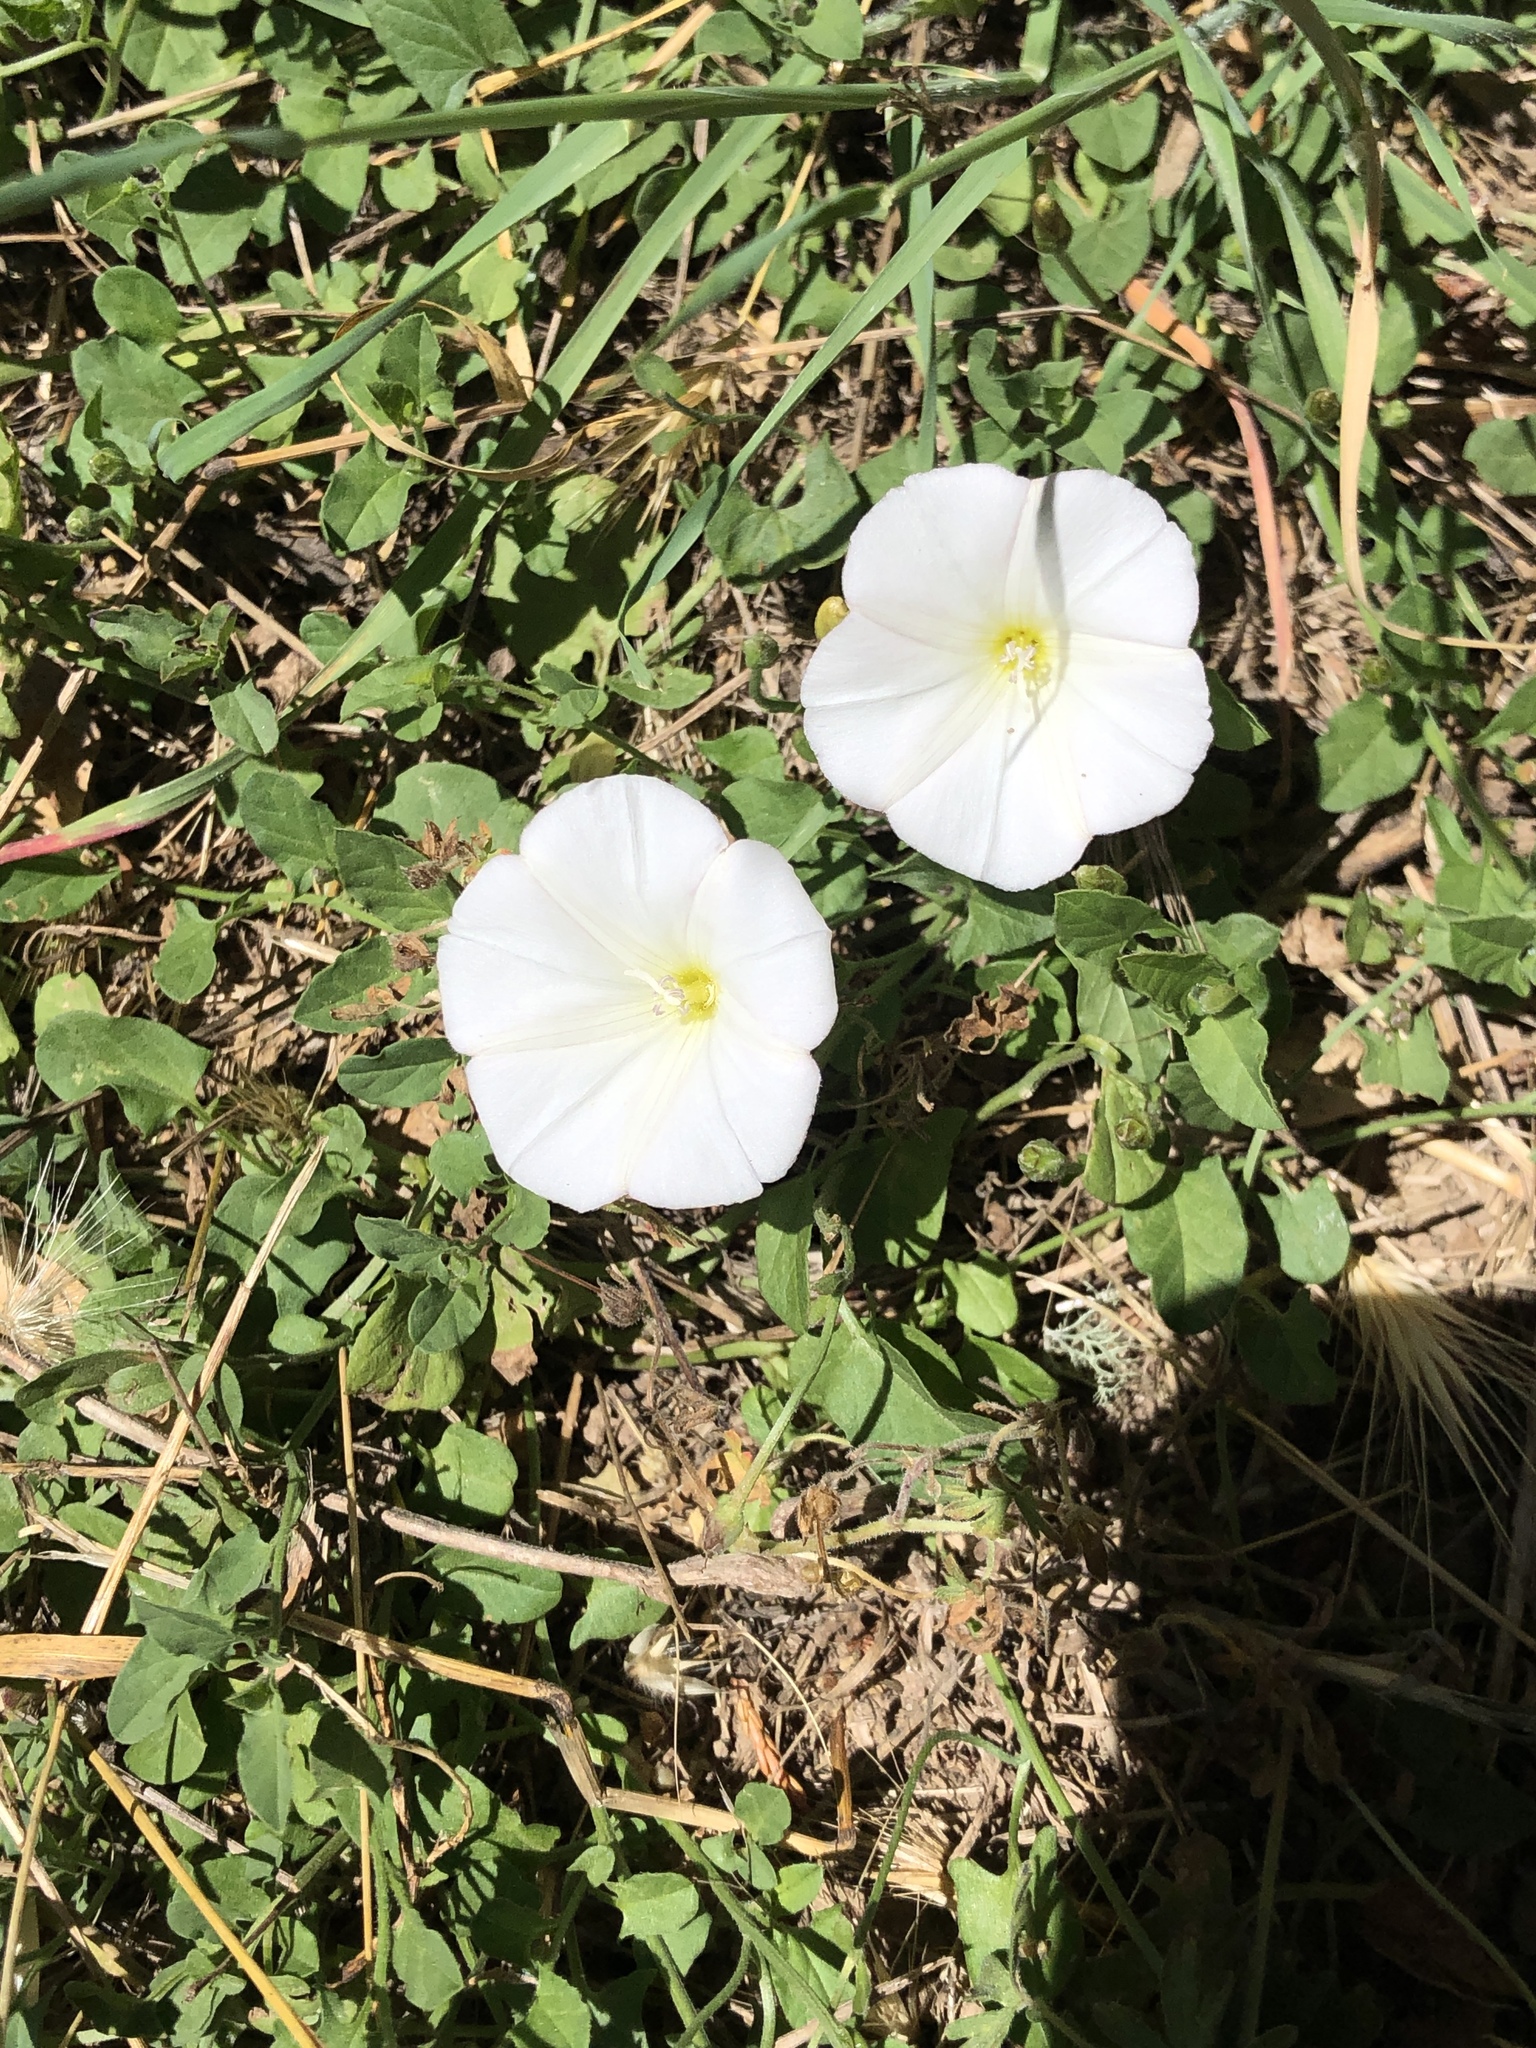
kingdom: Plantae
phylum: Tracheophyta
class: Magnoliopsida
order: Solanales
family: Convolvulaceae
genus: Convolvulus
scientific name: Convolvulus arvensis
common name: Field bindweed
